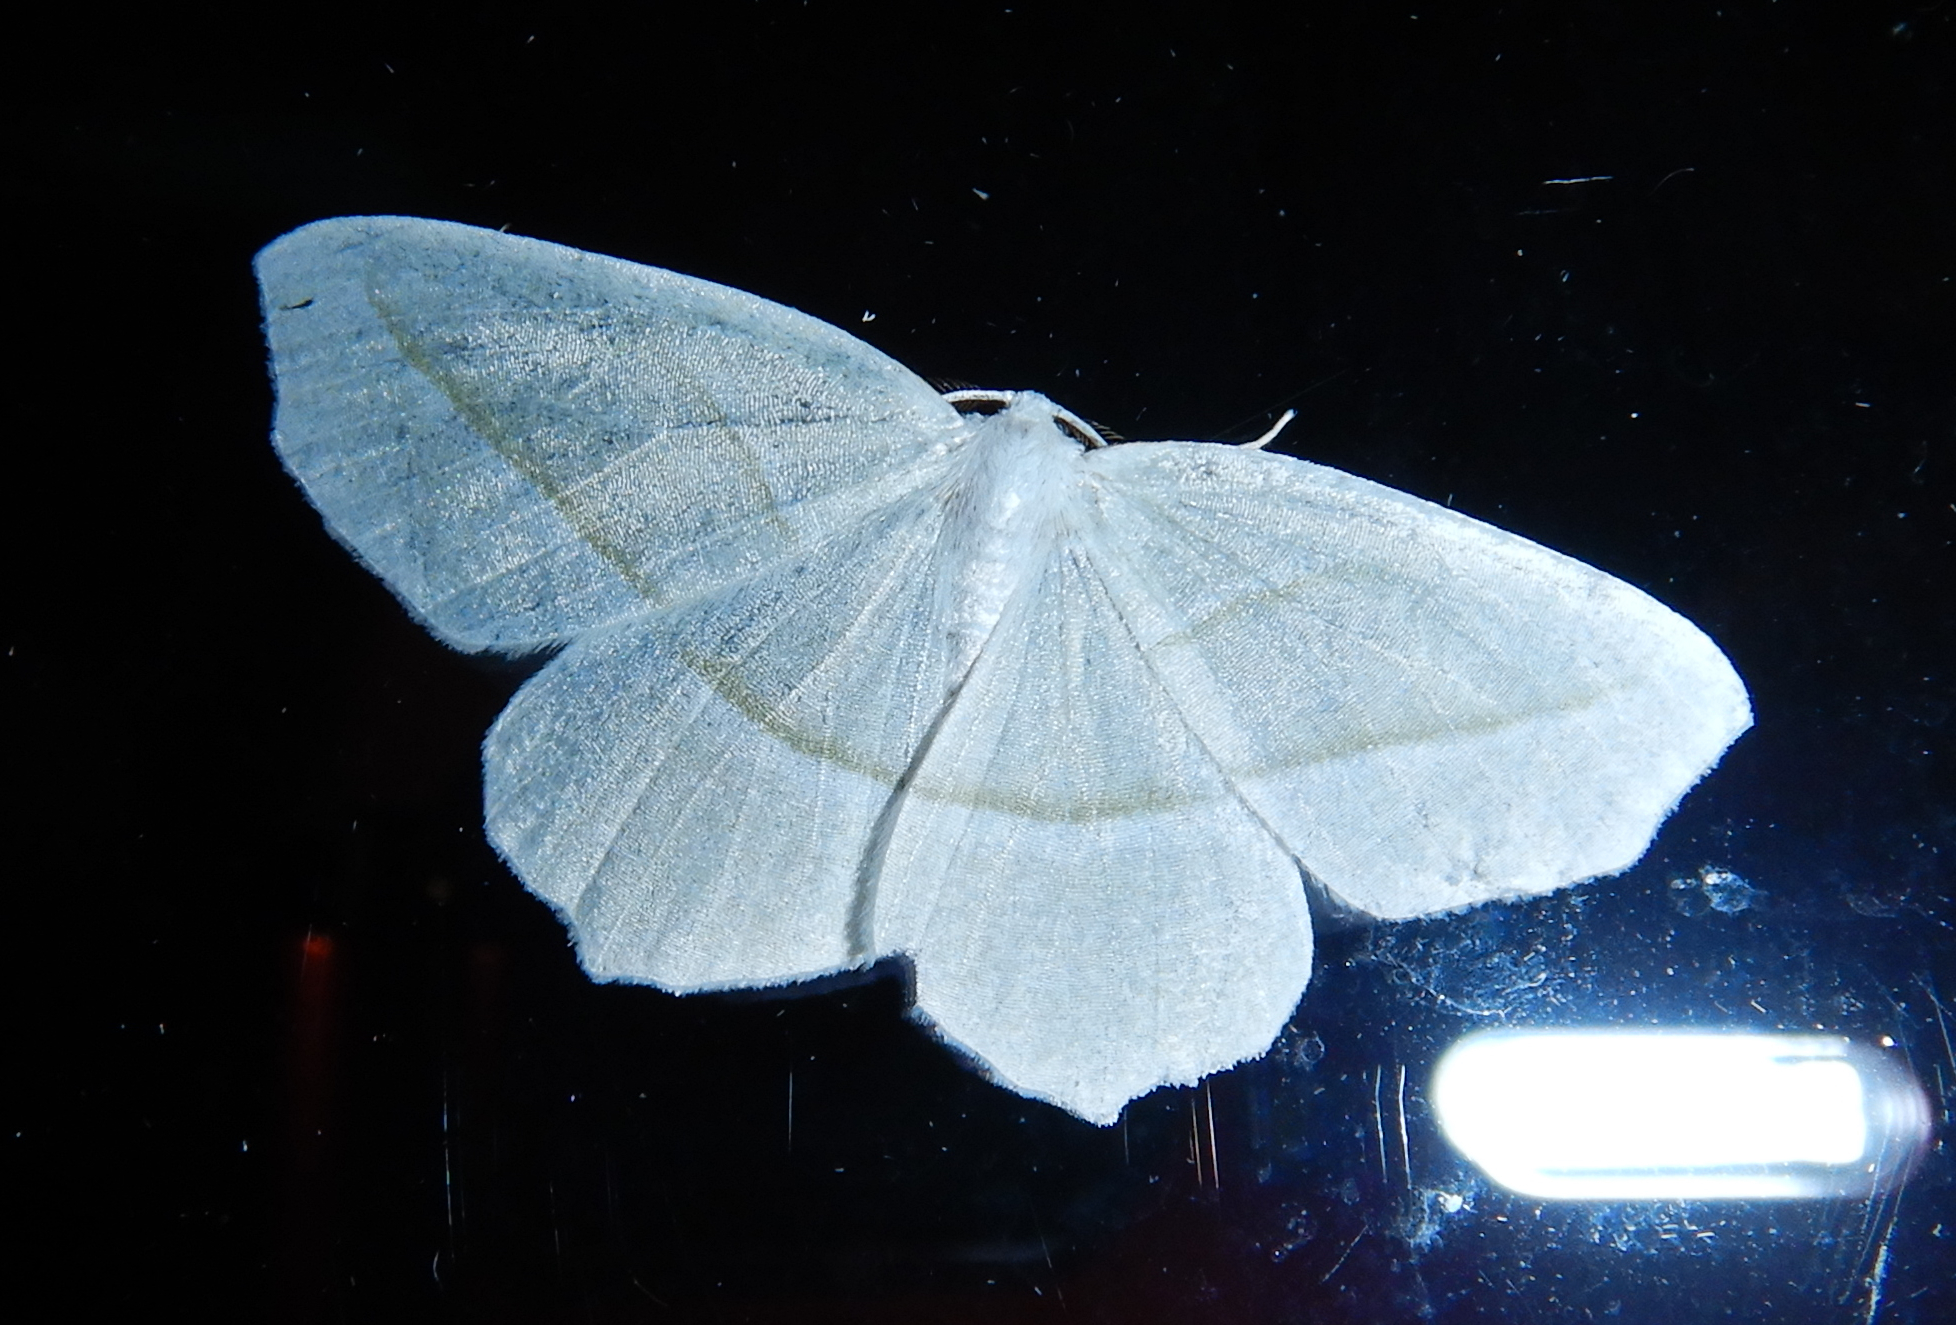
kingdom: Animalia
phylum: Arthropoda
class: Insecta
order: Lepidoptera
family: Geometridae
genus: Campaea
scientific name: Campaea perlata
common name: Fringed looper
